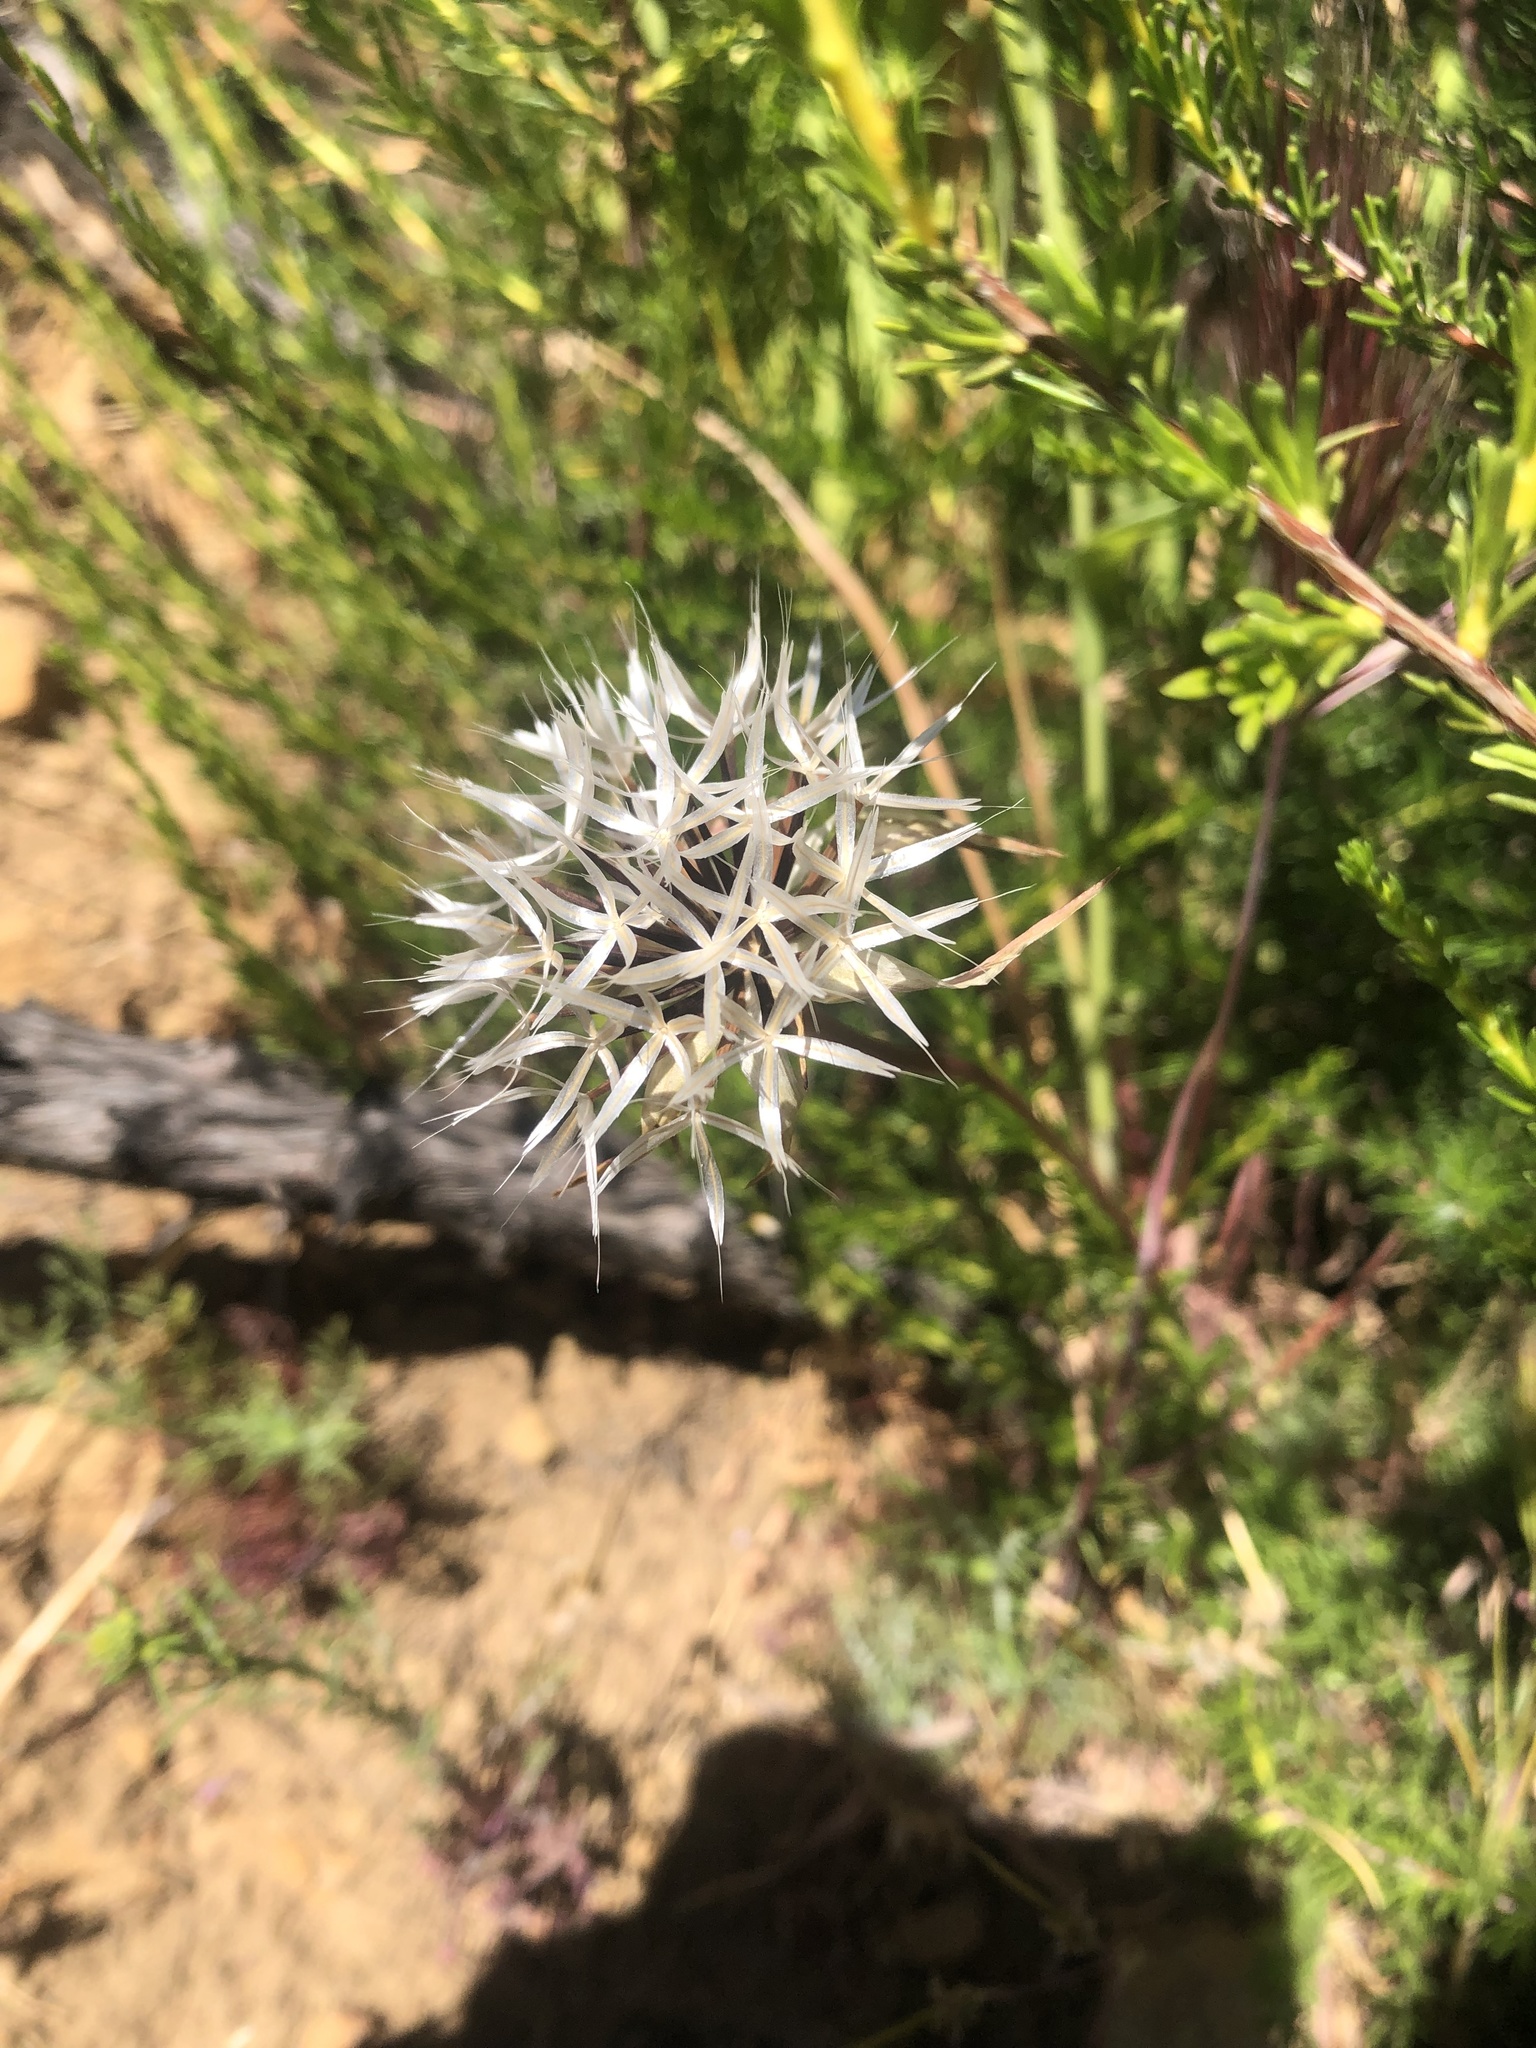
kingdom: Plantae
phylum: Tracheophyta
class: Magnoliopsida
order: Asterales
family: Asteraceae
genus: Microseris
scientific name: Microseris lindleyi
